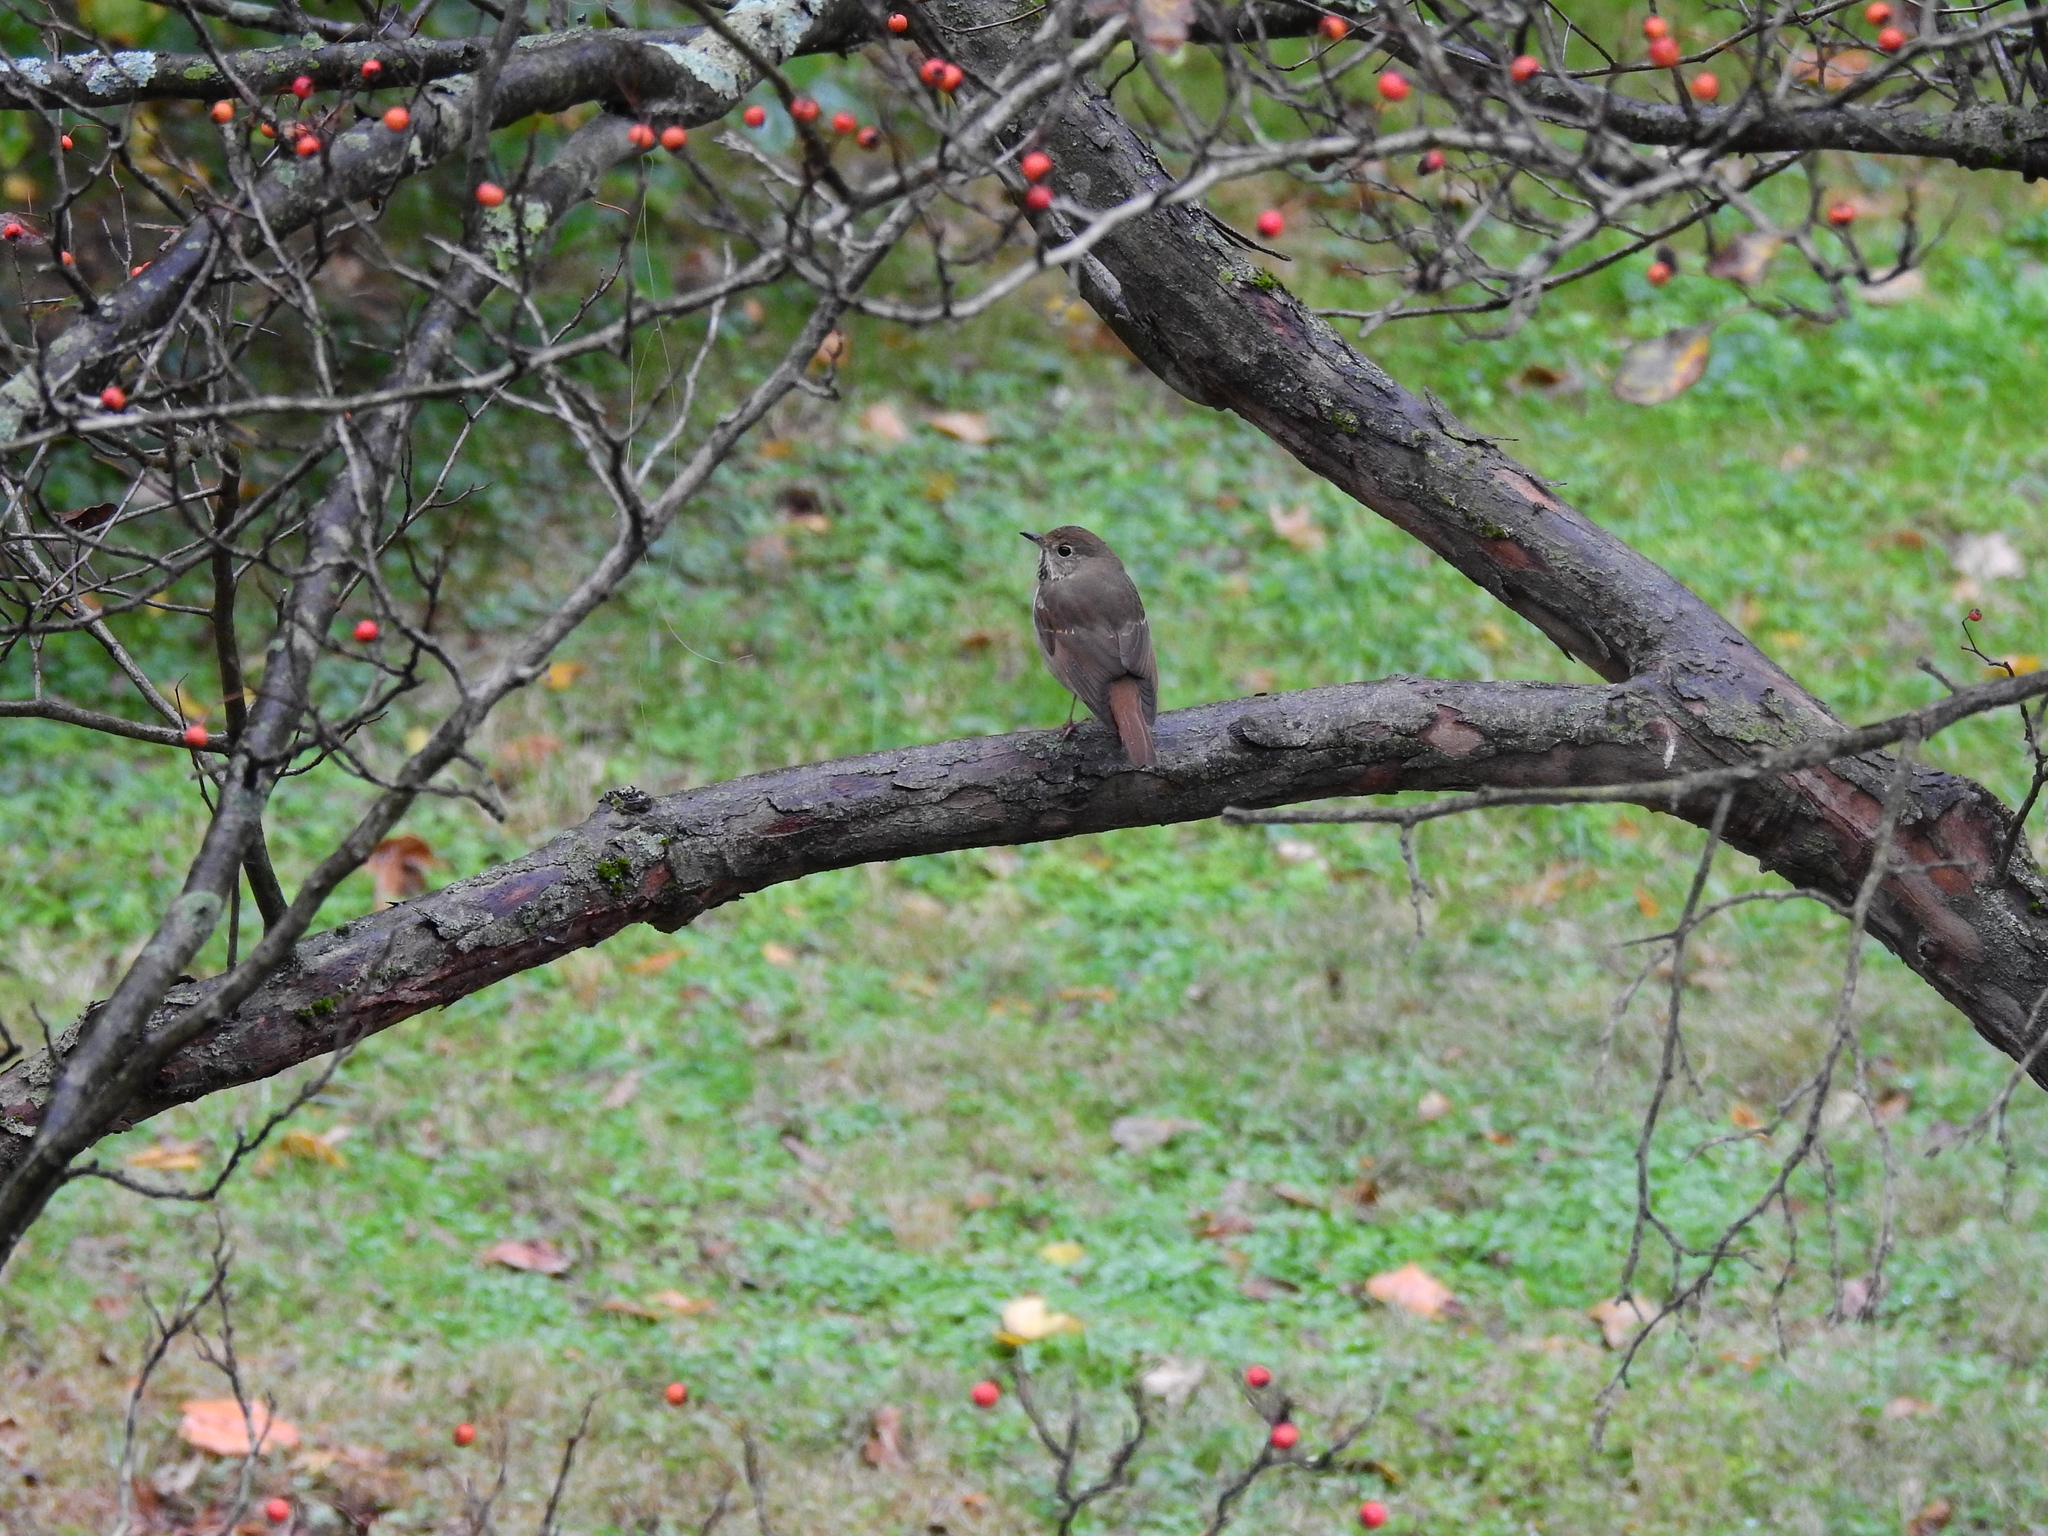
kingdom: Animalia
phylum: Chordata
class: Aves
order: Passeriformes
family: Turdidae
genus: Catharus
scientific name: Catharus guttatus
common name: Hermit thrush
